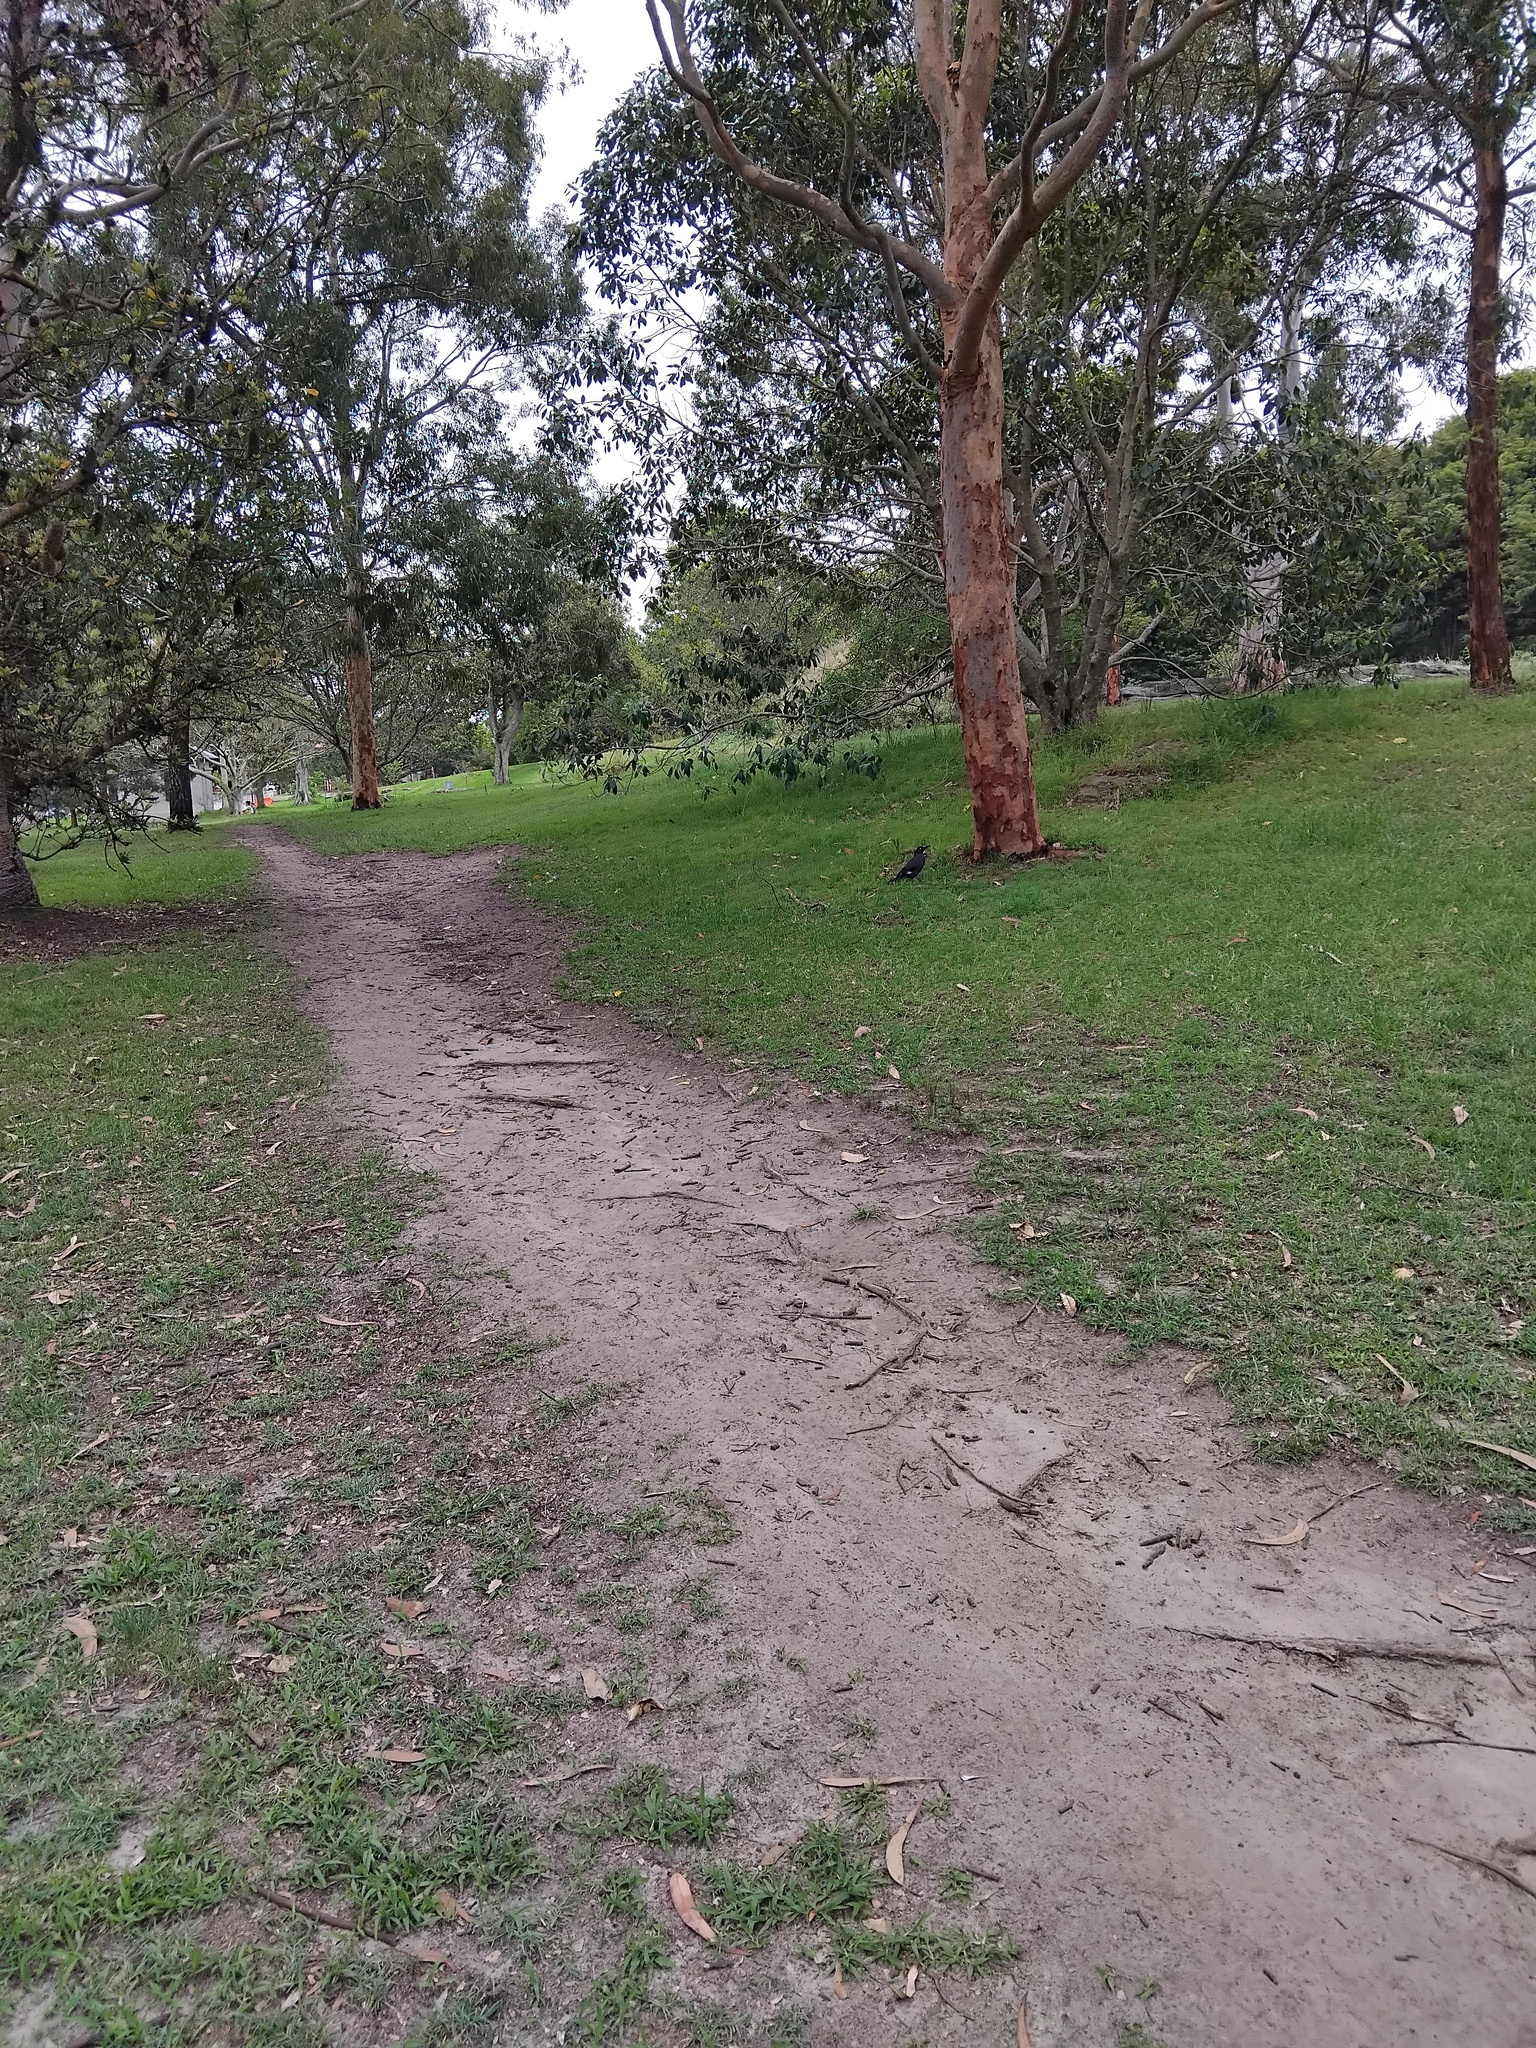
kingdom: Animalia
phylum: Chordata
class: Aves
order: Passeriformes
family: Cracticidae
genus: Strepera
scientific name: Strepera graculina
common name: Pied currawong
